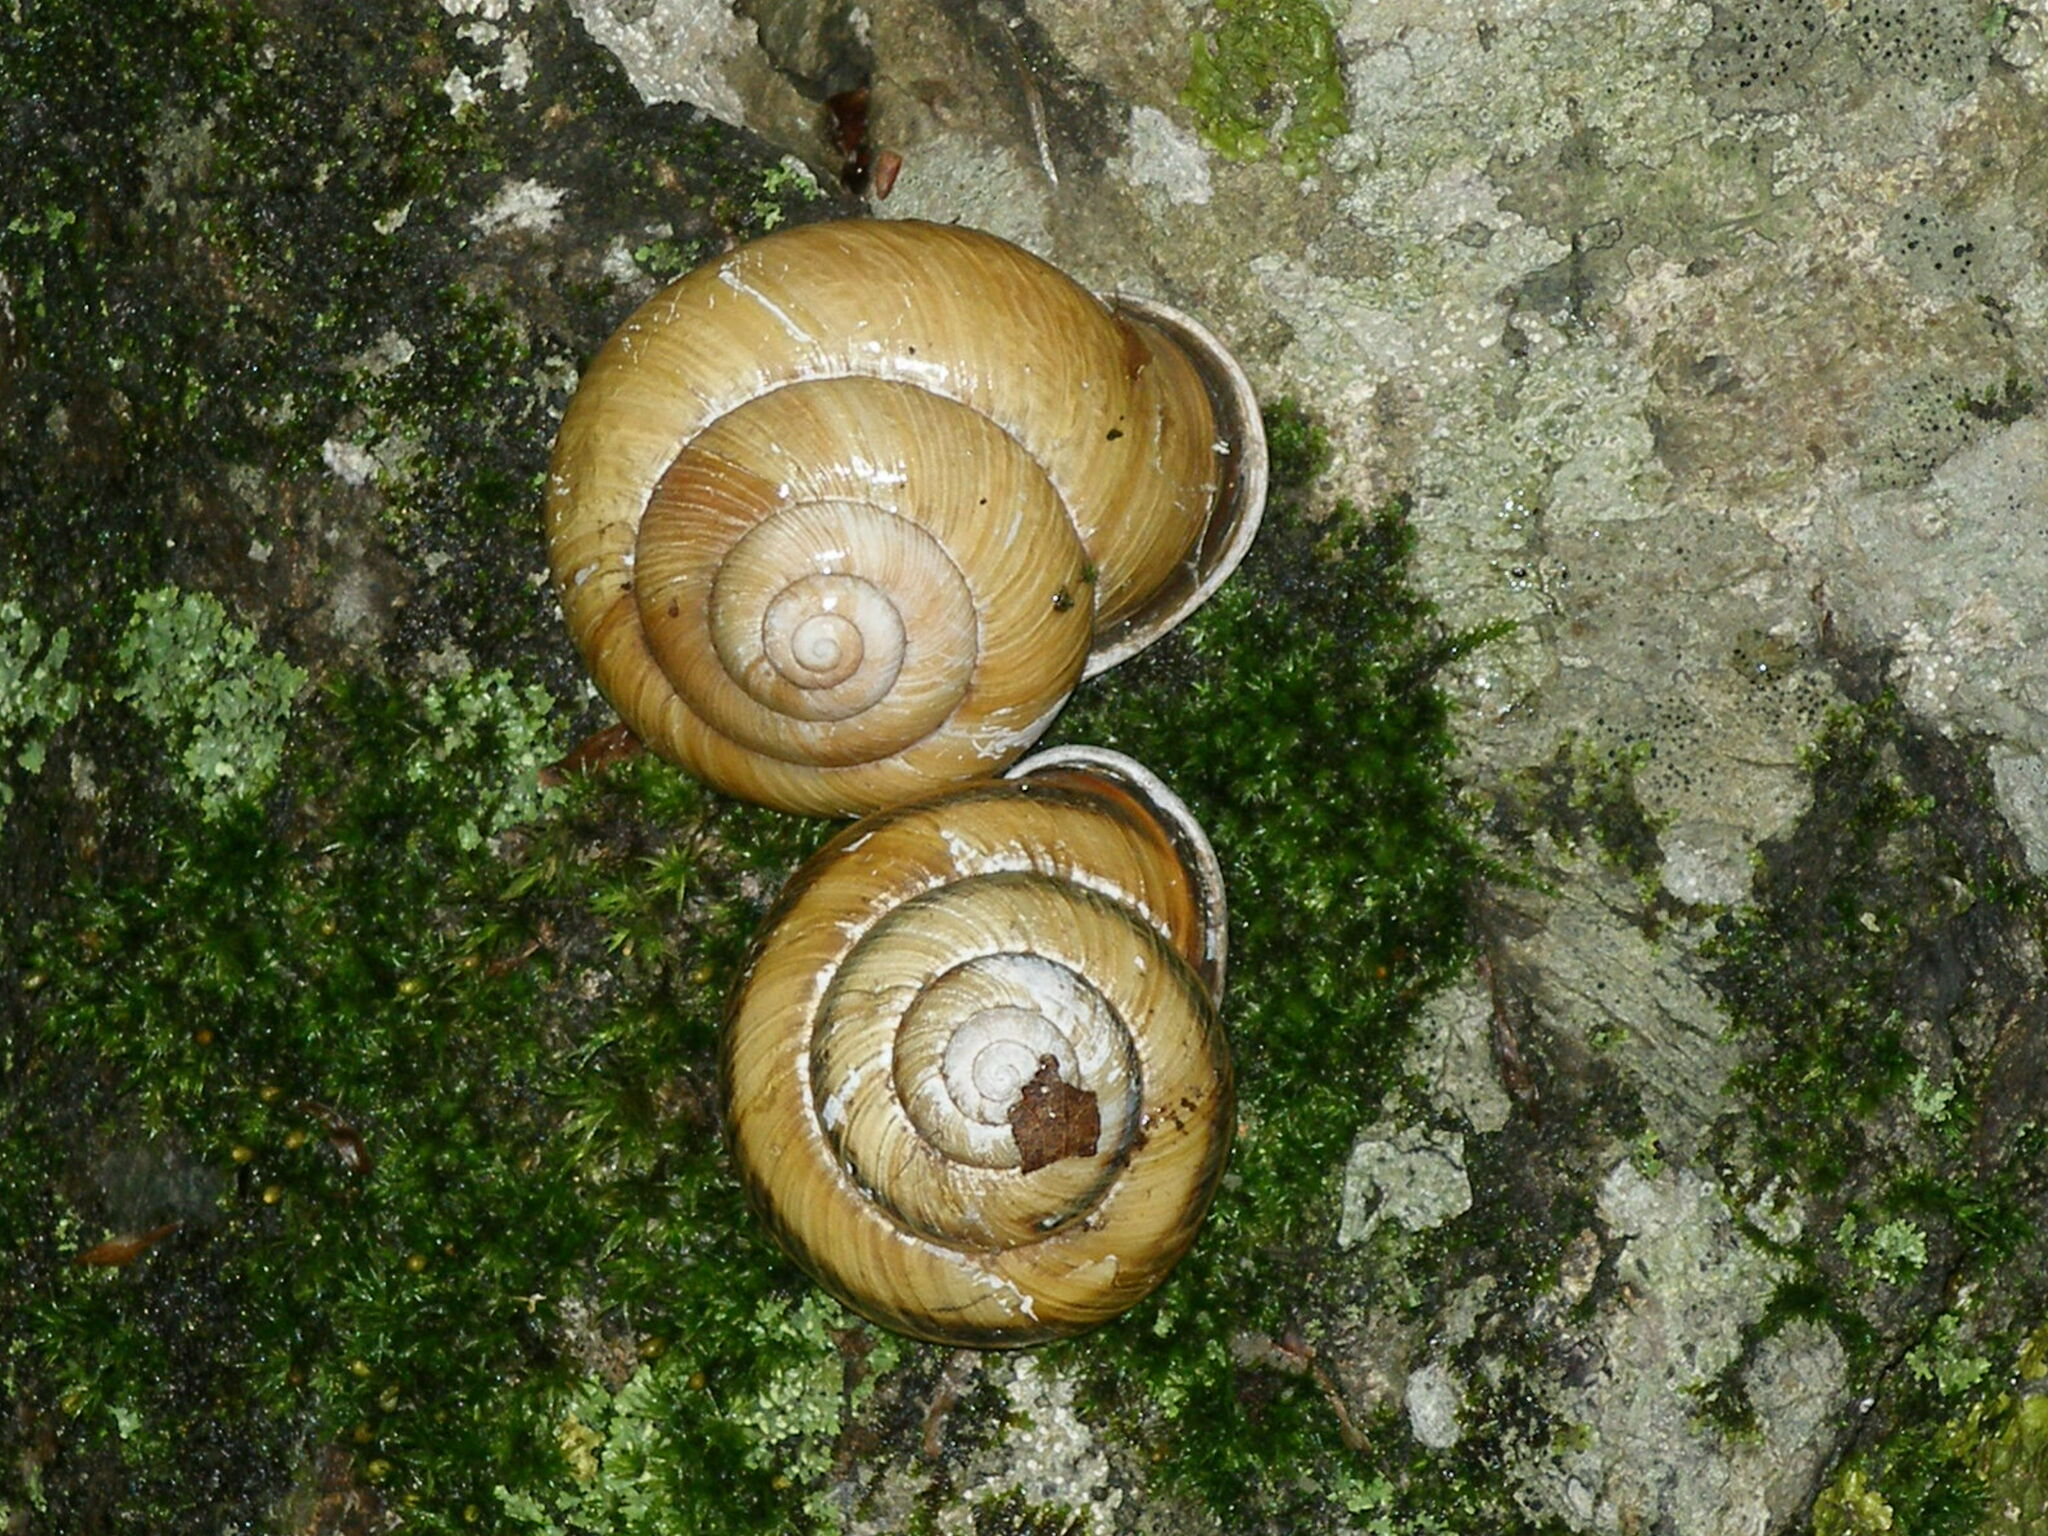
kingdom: Animalia
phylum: Mollusca
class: Gastropoda
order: Stylommatophora
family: Helicidae
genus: Caucasotachea
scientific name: Caucasotachea atrolabiata
